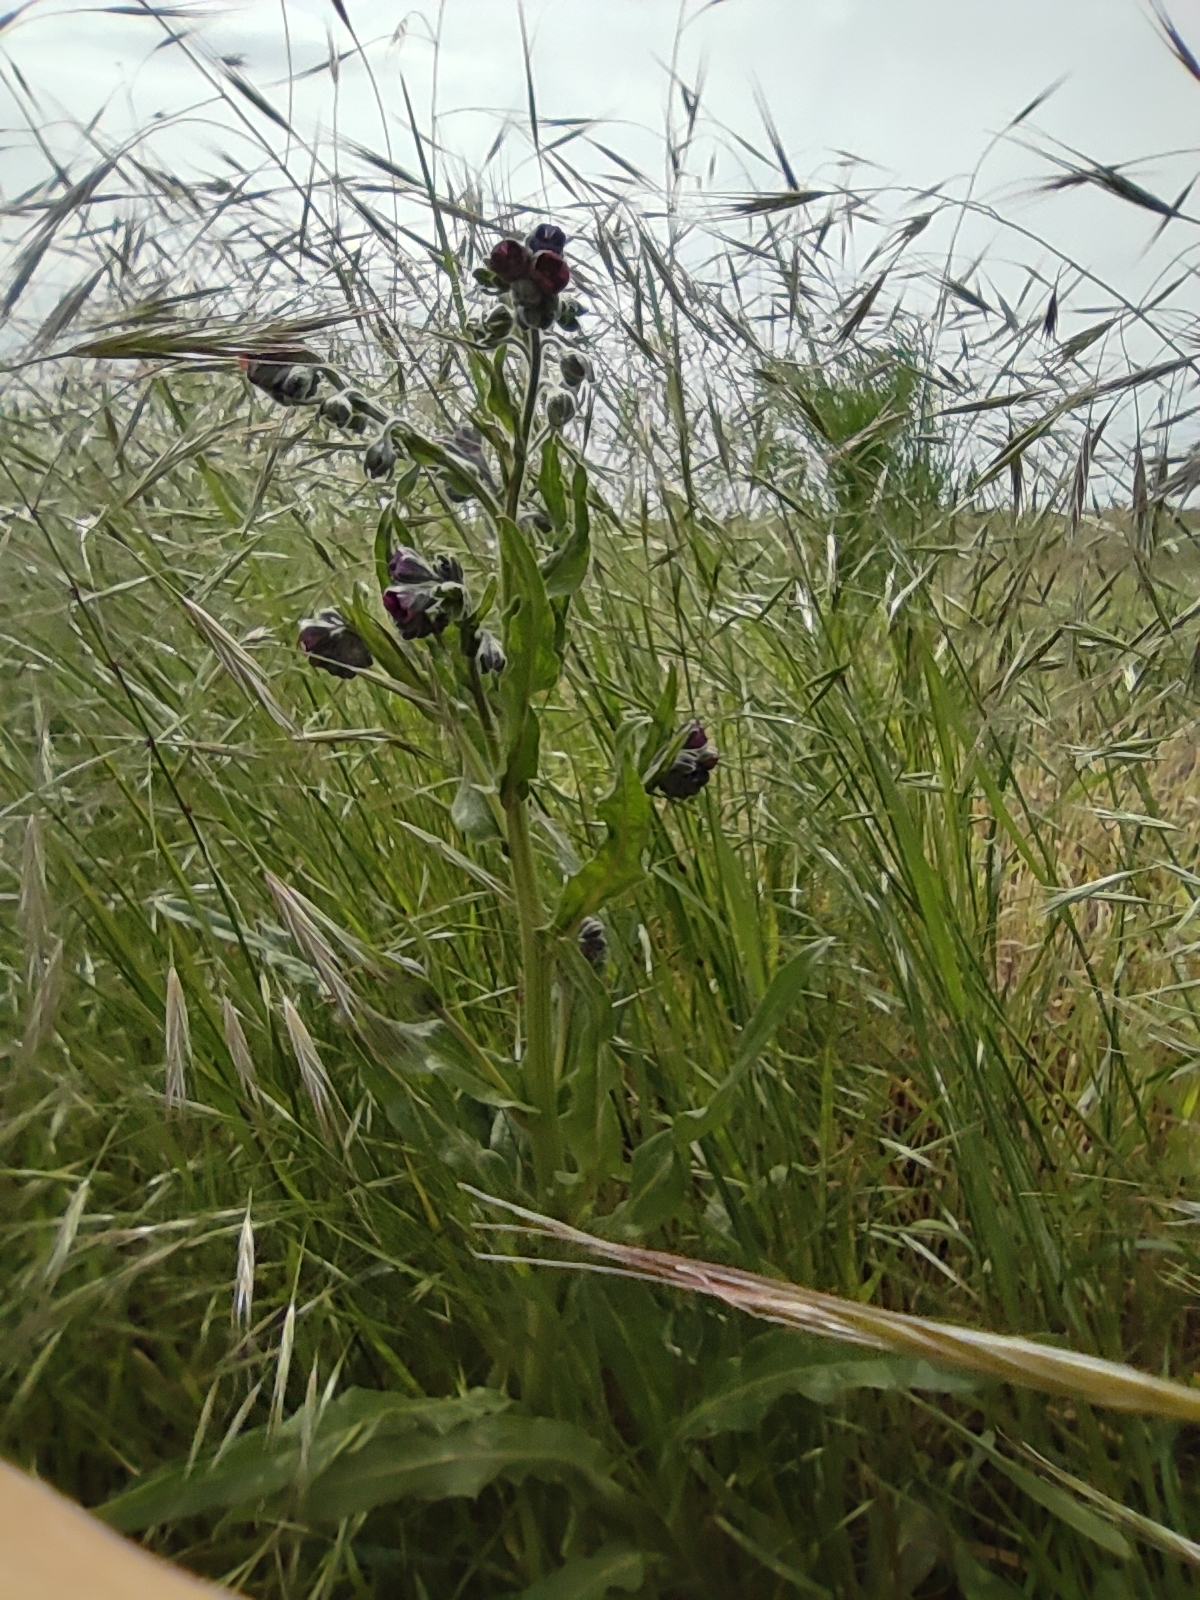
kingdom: Plantae
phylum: Tracheophyta
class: Magnoliopsida
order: Boraginales
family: Boraginaceae
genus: Cynoglossum
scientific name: Cynoglossum officinale
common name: Hound's-tongue
